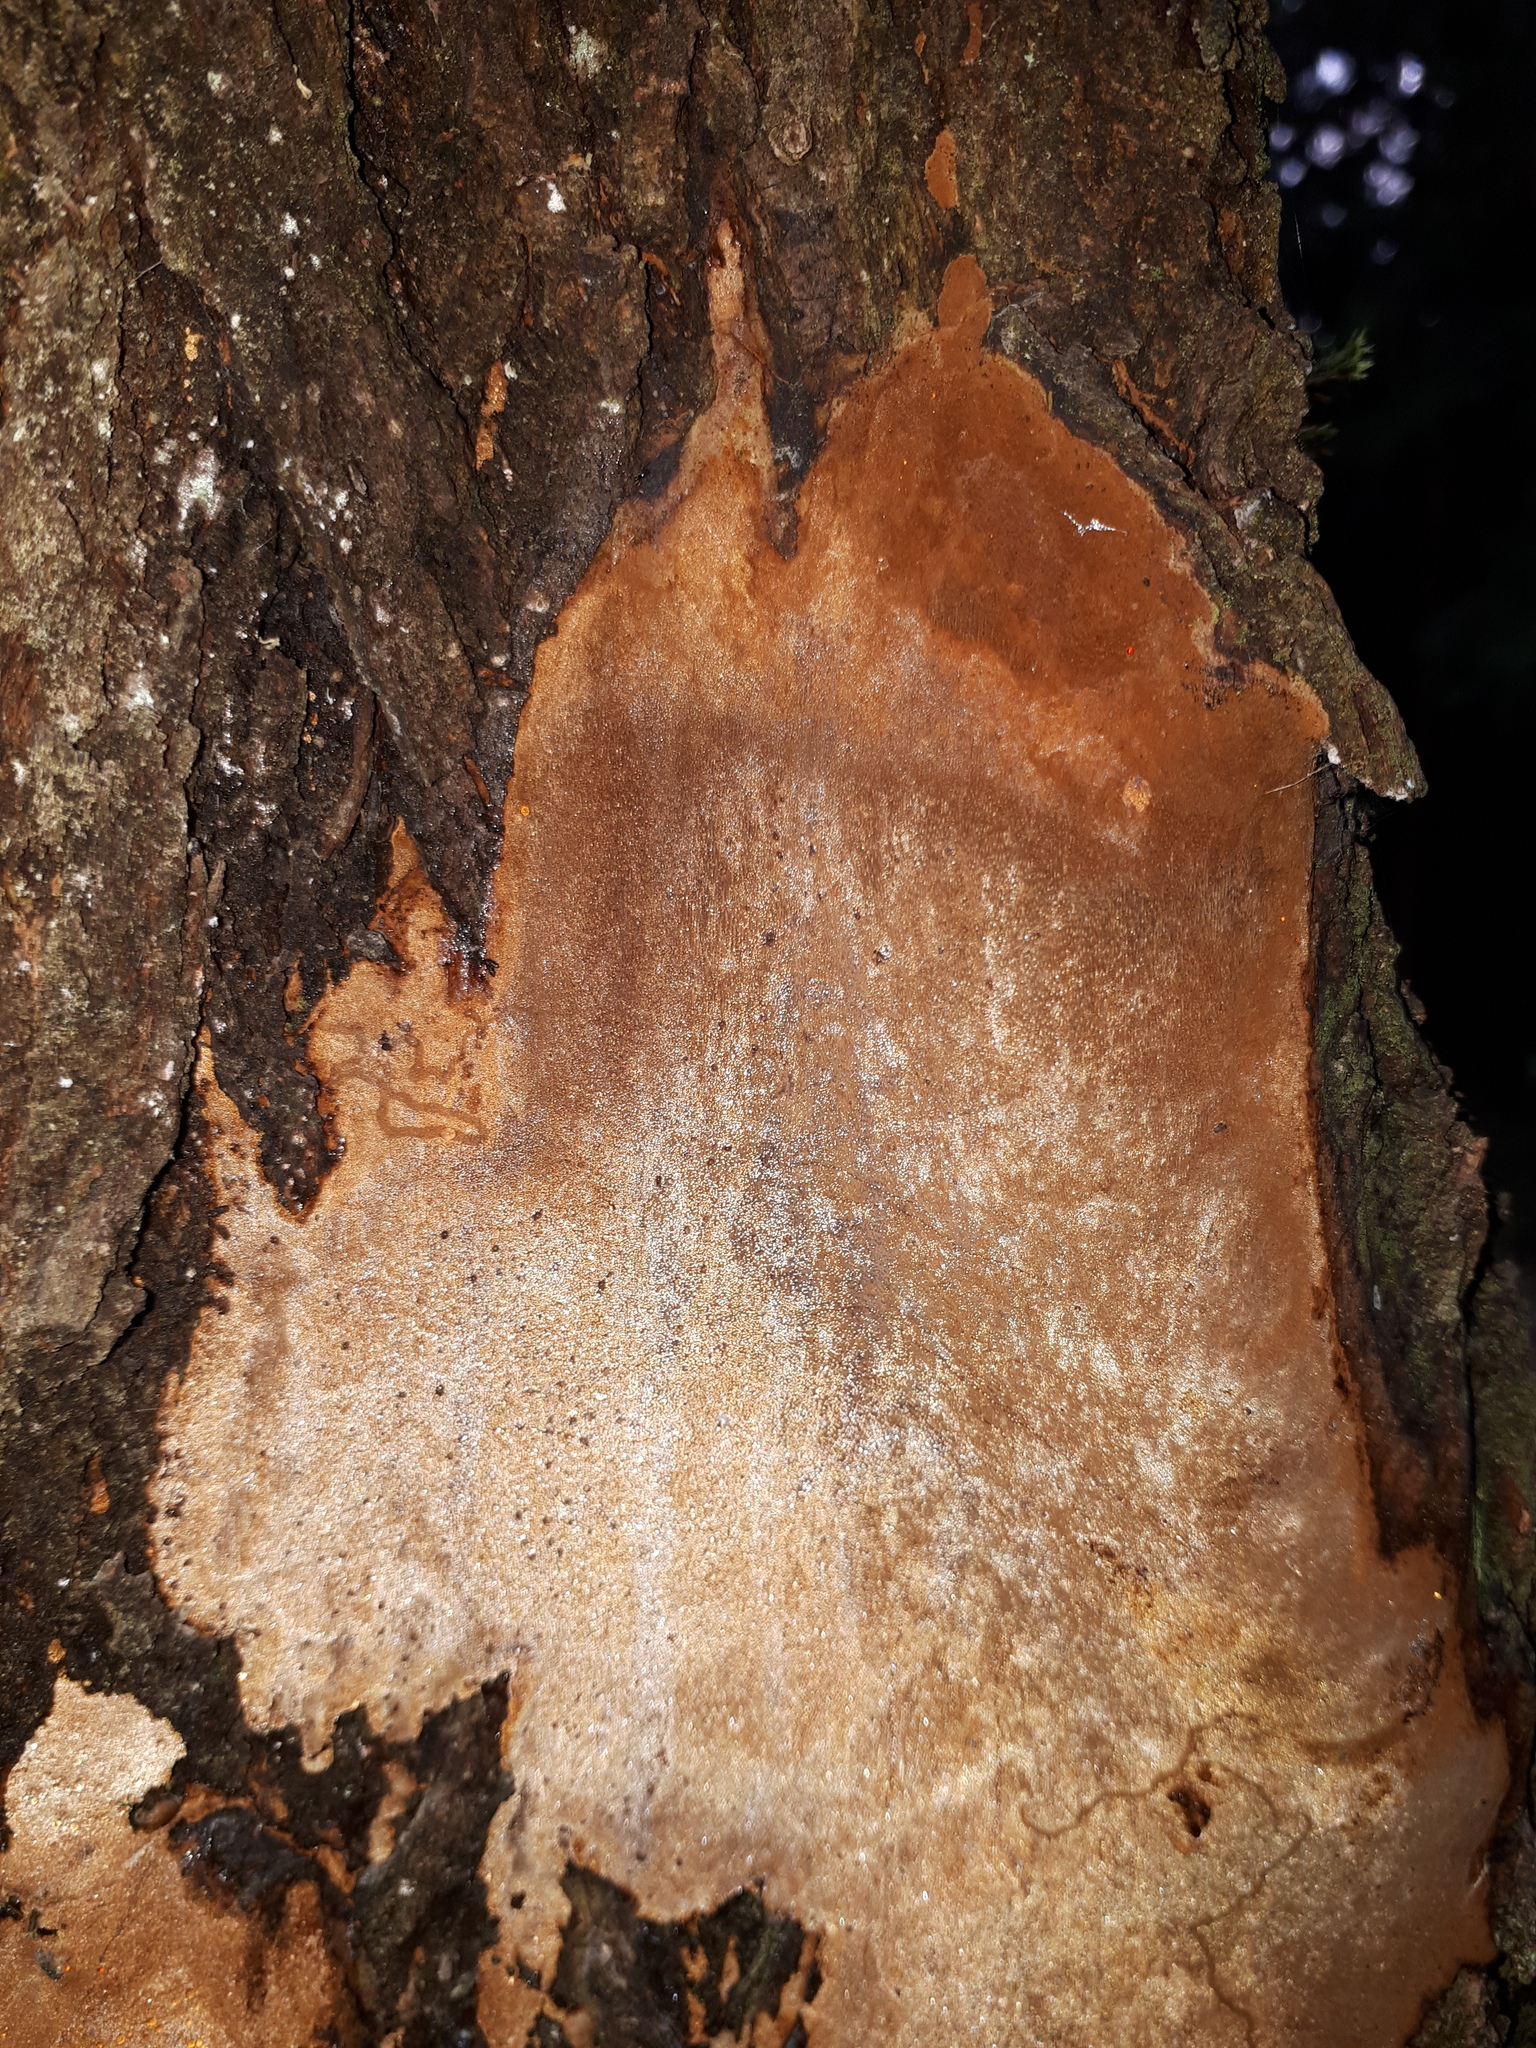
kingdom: Fungi
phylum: Basidiomycota
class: Agaricomycetes
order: Hymenochaetales
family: Hymenochaetaceae
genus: Fomitiporia
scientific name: Fomitiporia punctata
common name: Elbowpatch crust
